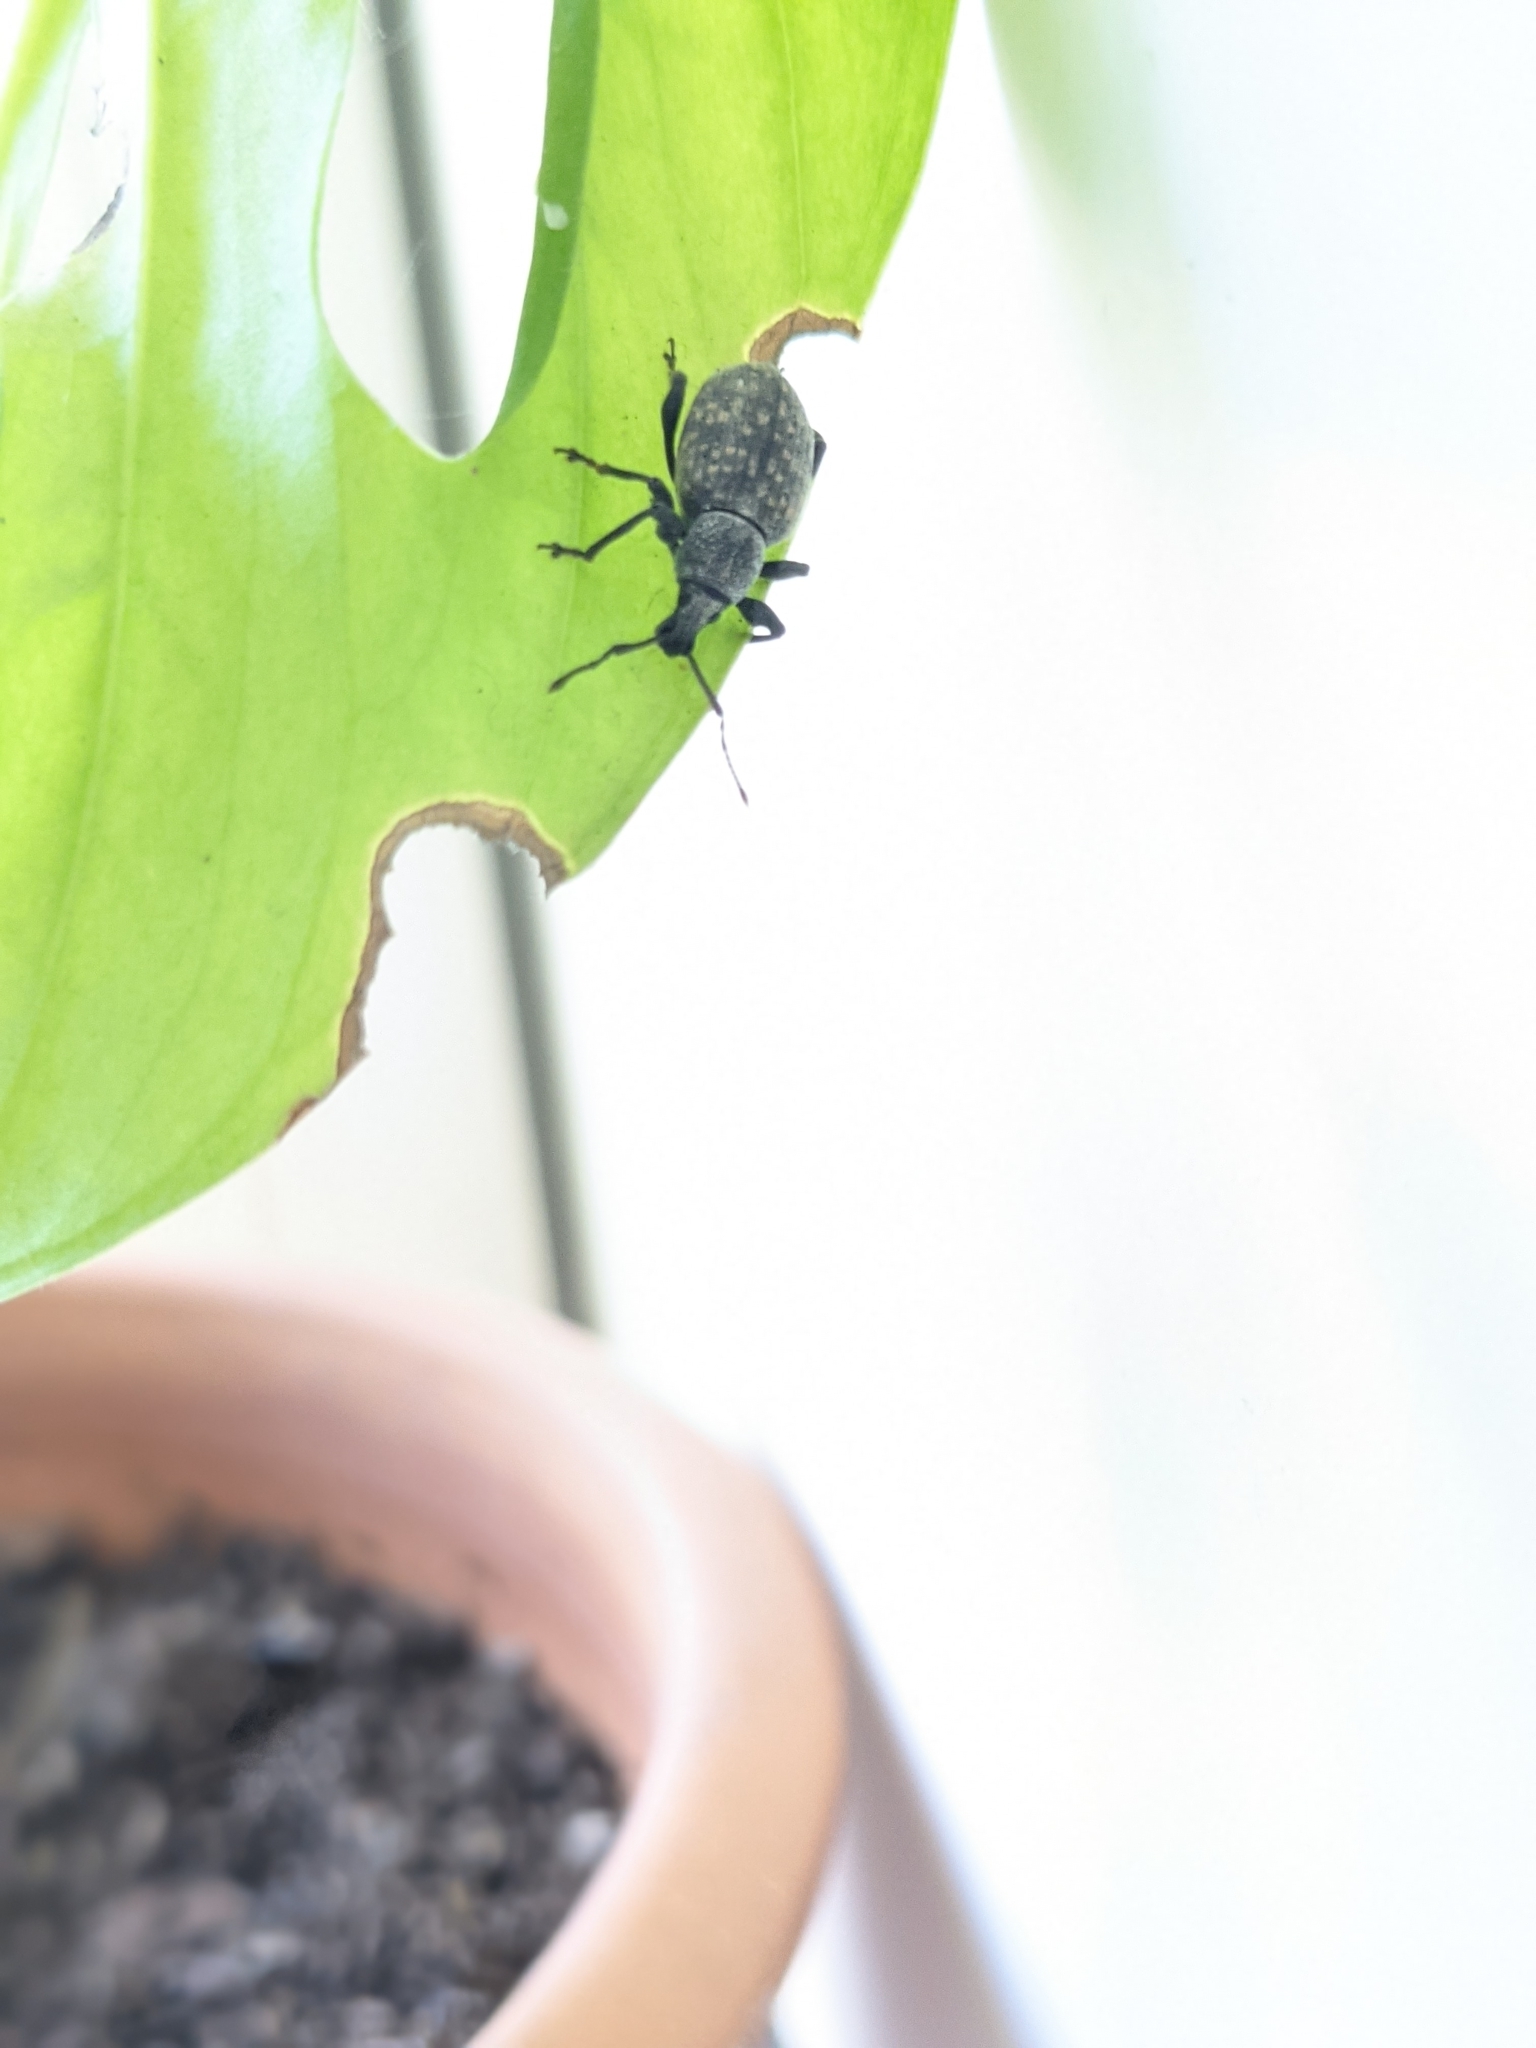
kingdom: Animalia
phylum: Arthropoda
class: Insecta
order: Coleoptera
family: Curculionidae
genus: Otiorhynchus
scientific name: Otiorhynchus sulcatus
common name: Black vine weevil
